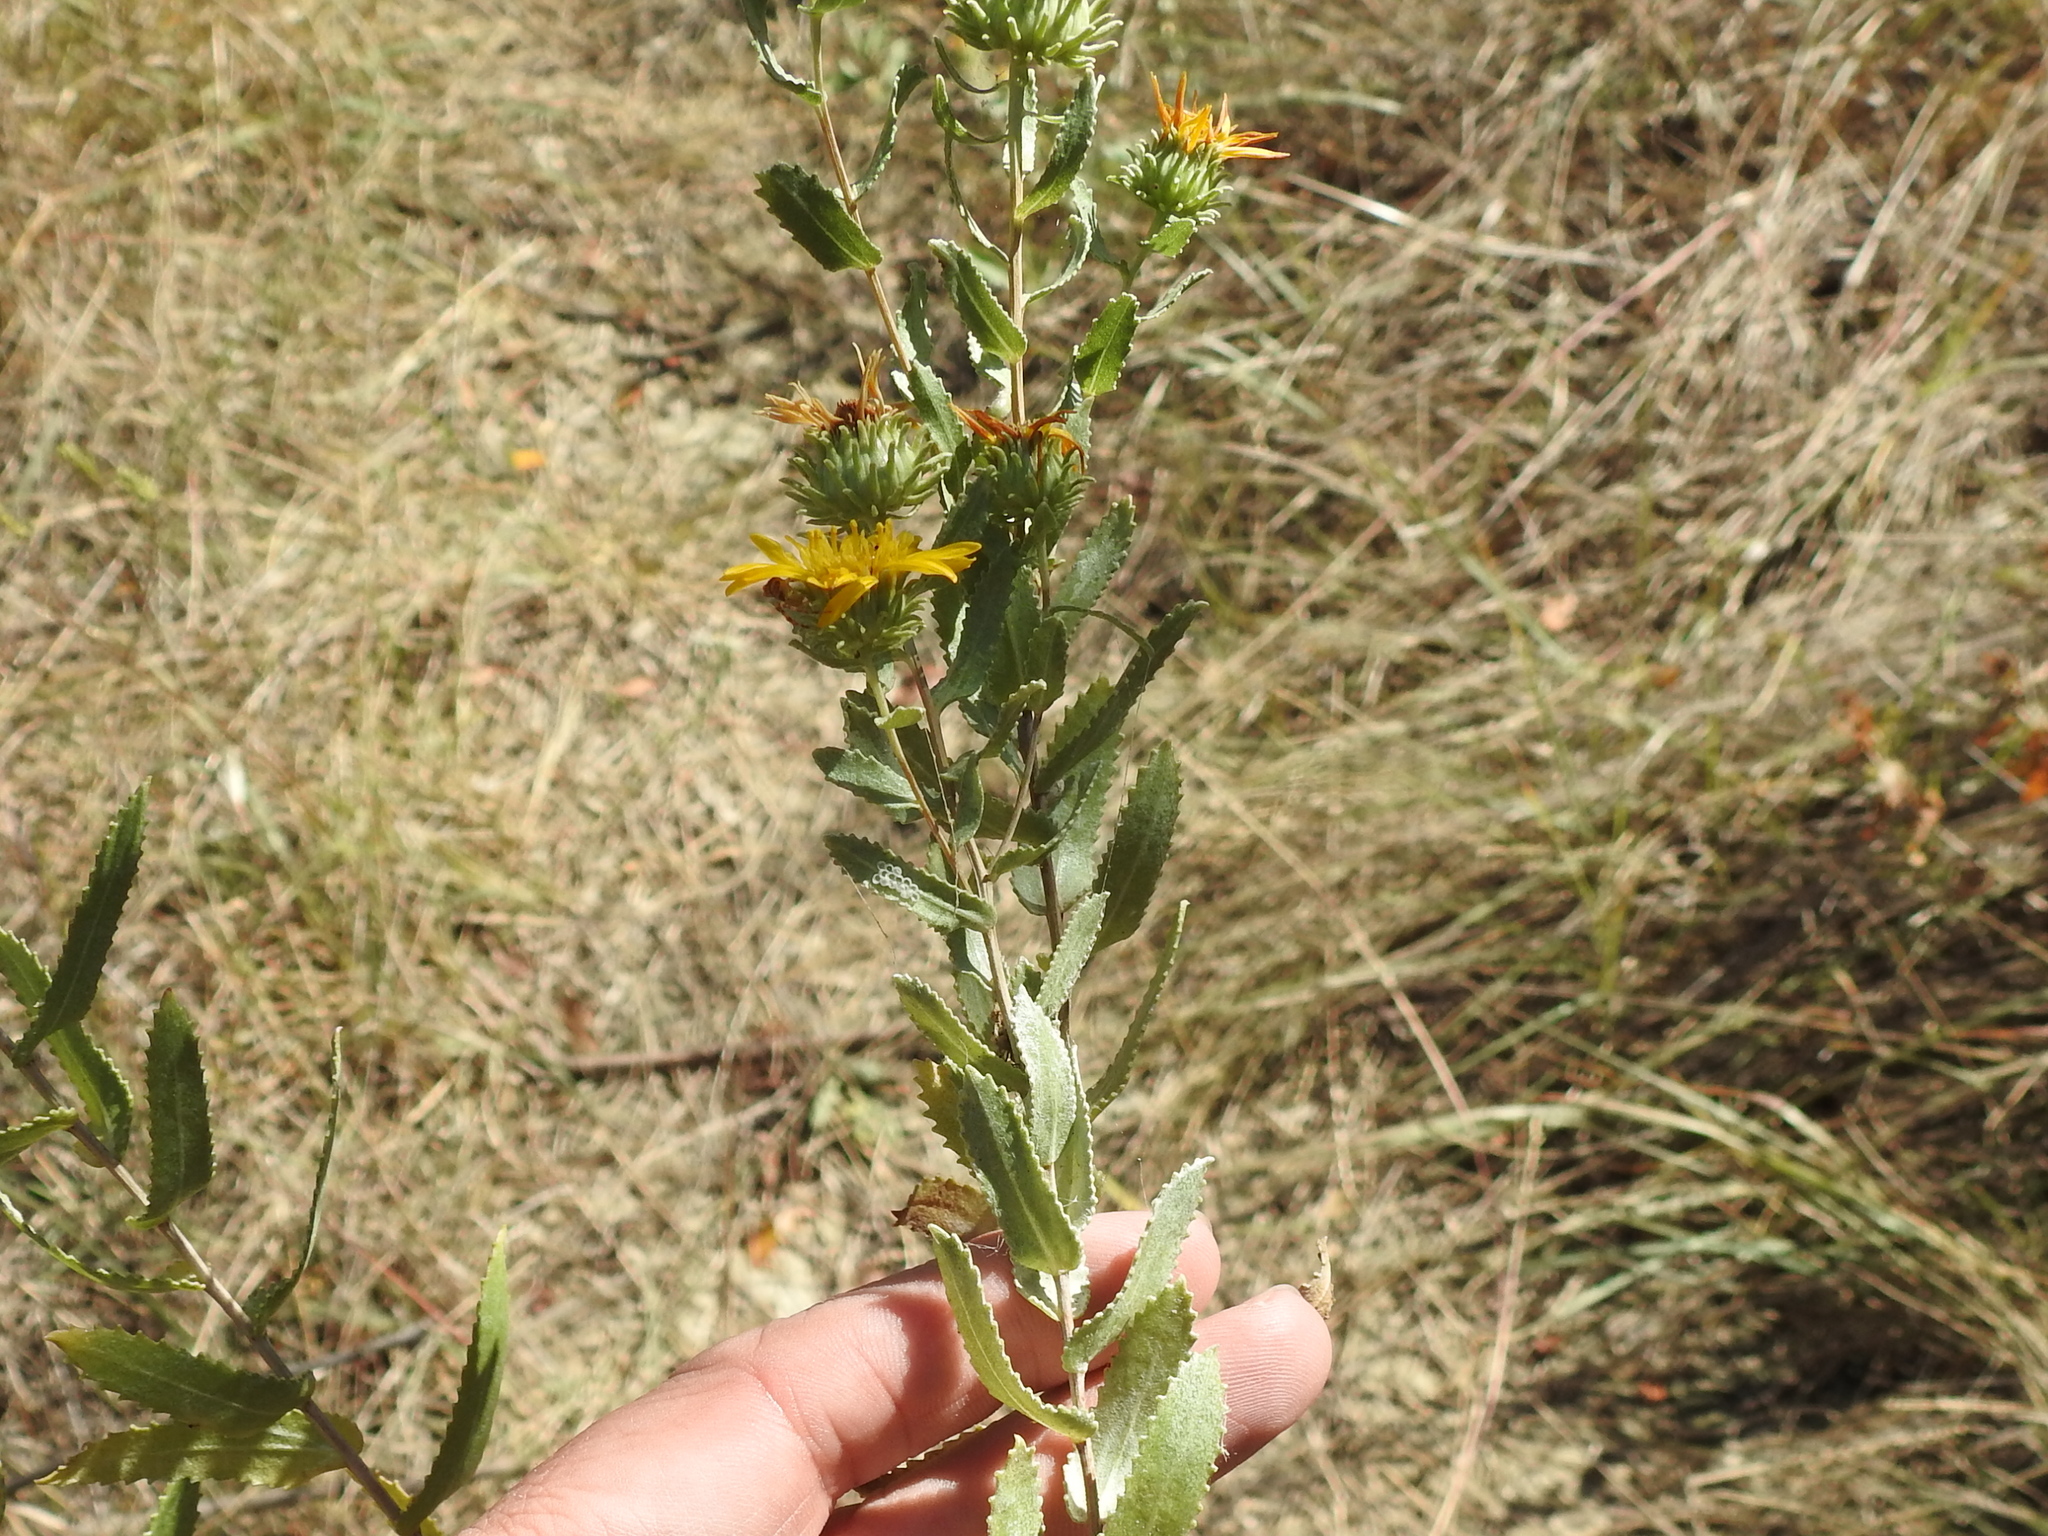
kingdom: Plantae
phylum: Tracheophyta
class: Magnoliopsida
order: Asterales
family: Asteraceae
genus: Grindelia
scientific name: Grindelia squarrosa
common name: Curly-cup gumweed
